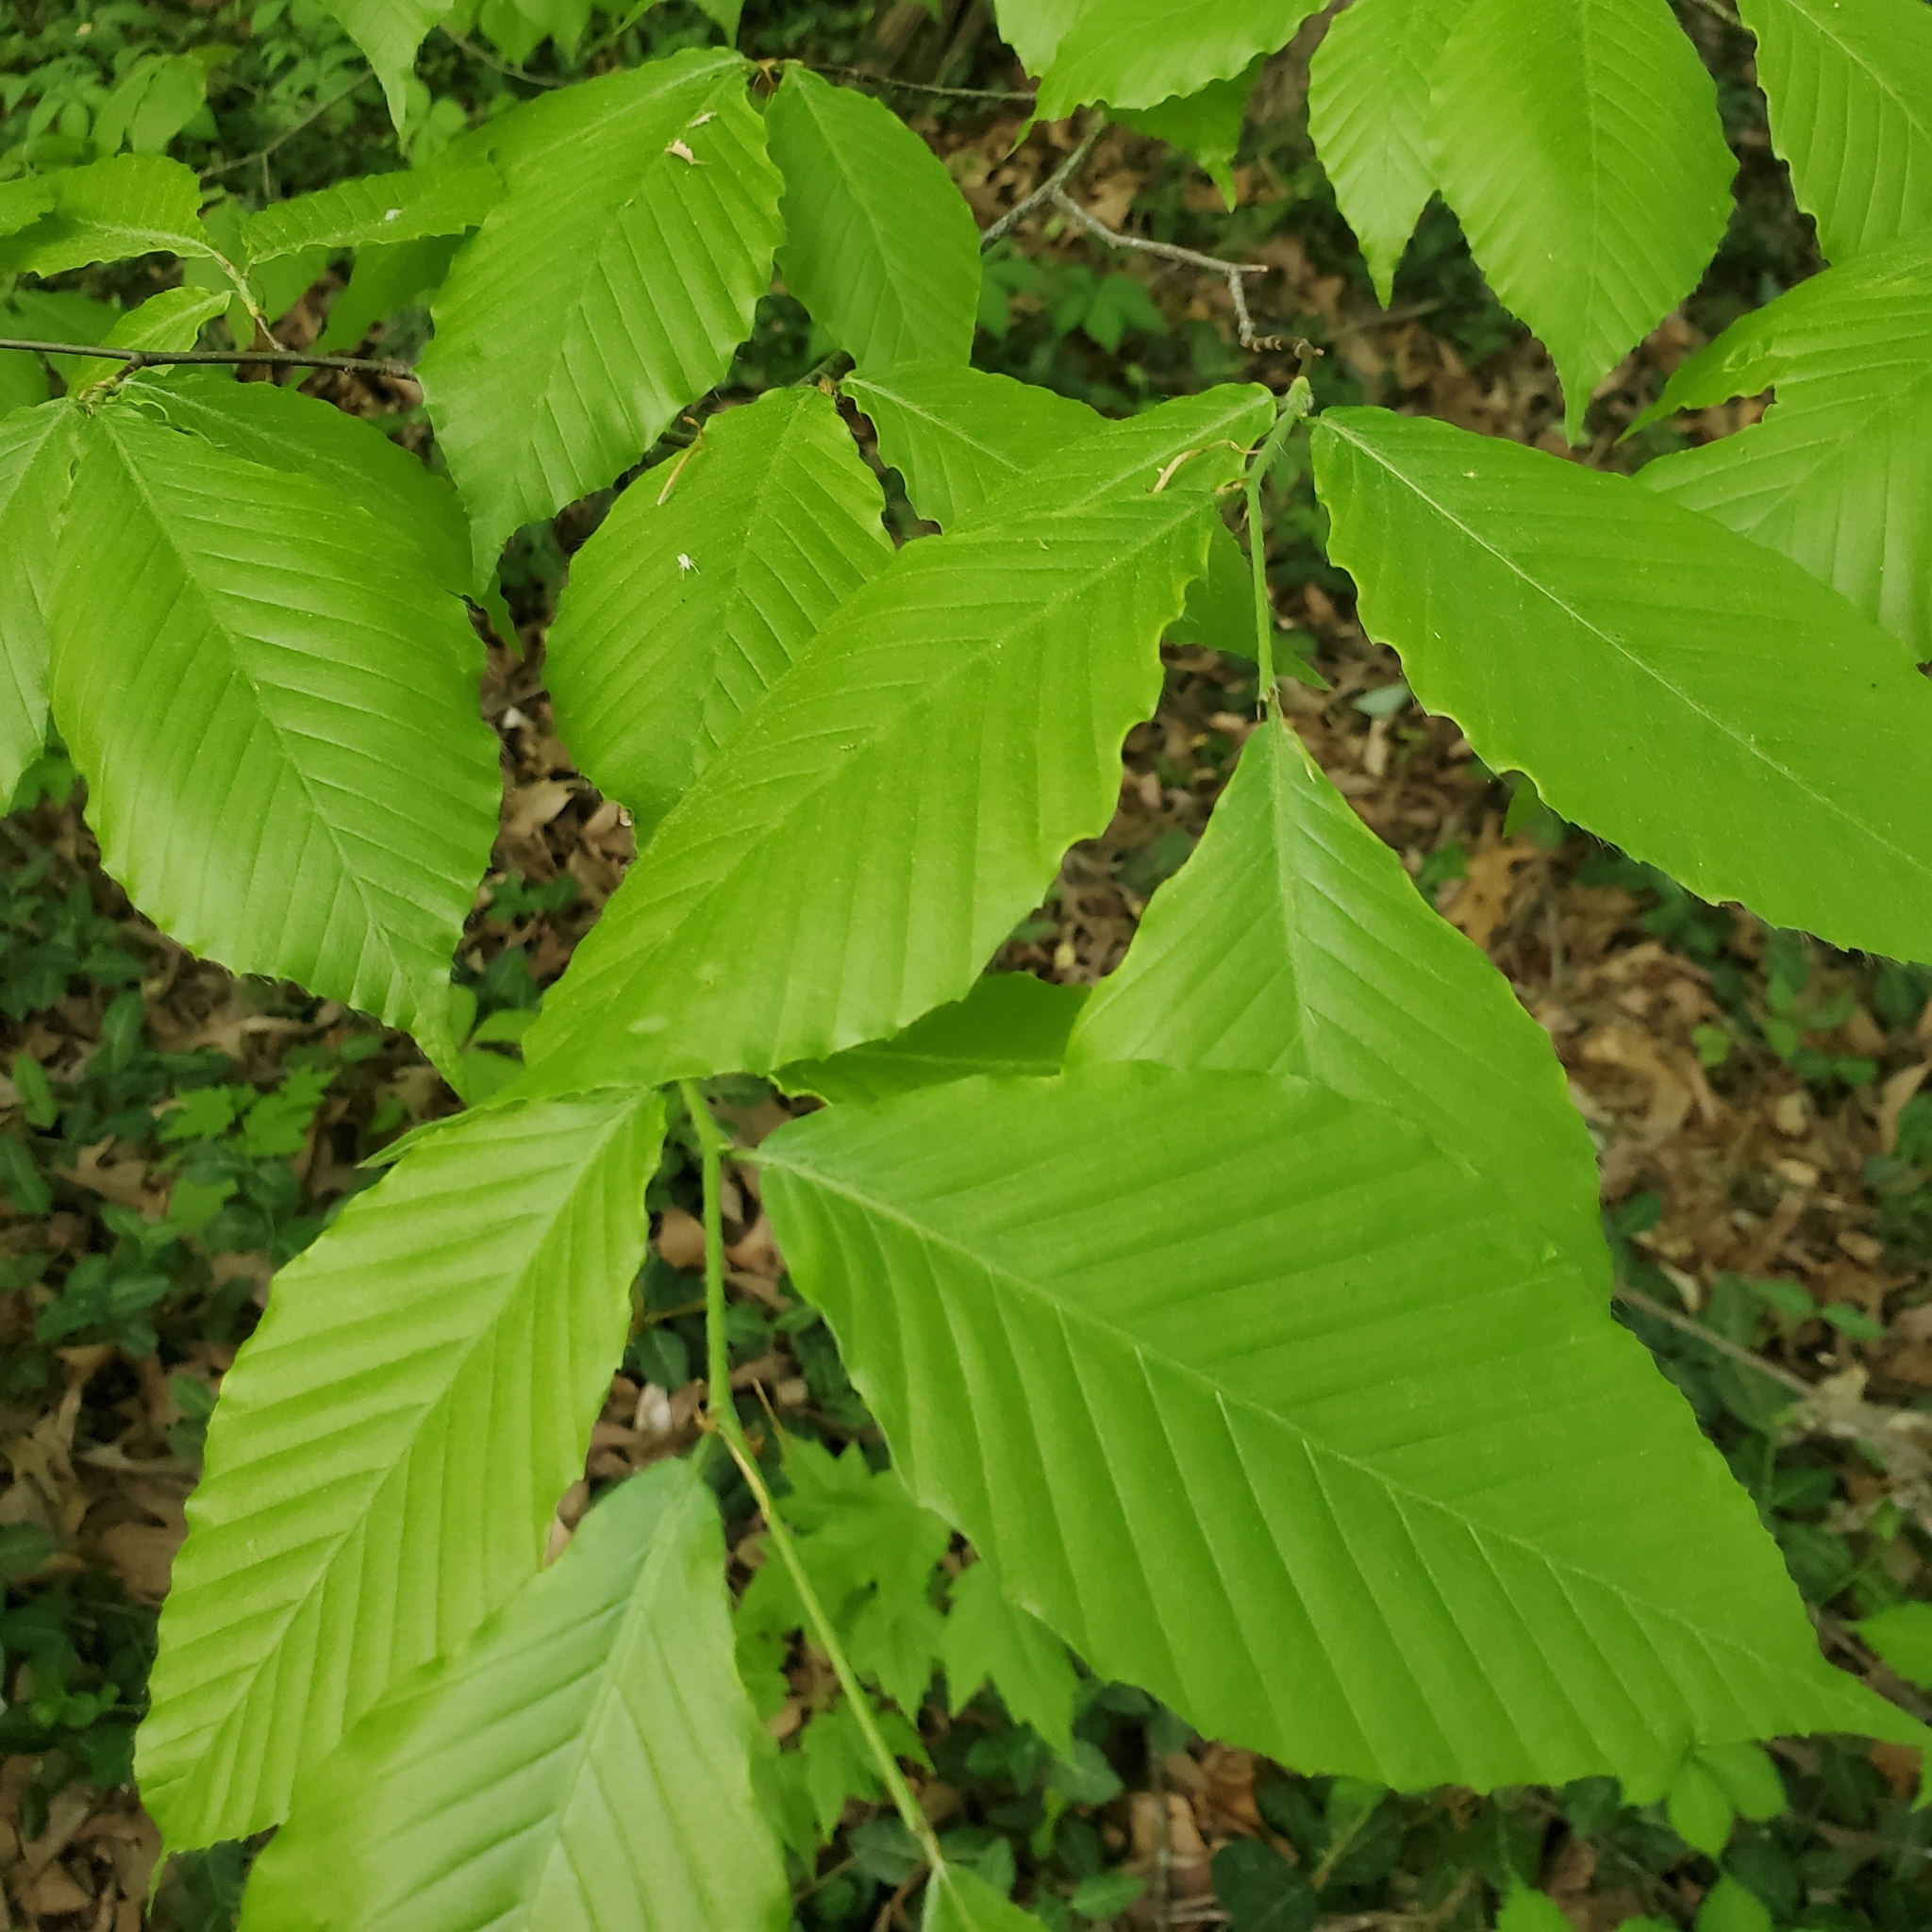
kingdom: Plantae
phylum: Tracheophyta
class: Magnoliopsida
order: Fagales
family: Fagaceae
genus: Fagus
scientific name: Fagus grandifolia
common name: American beech
